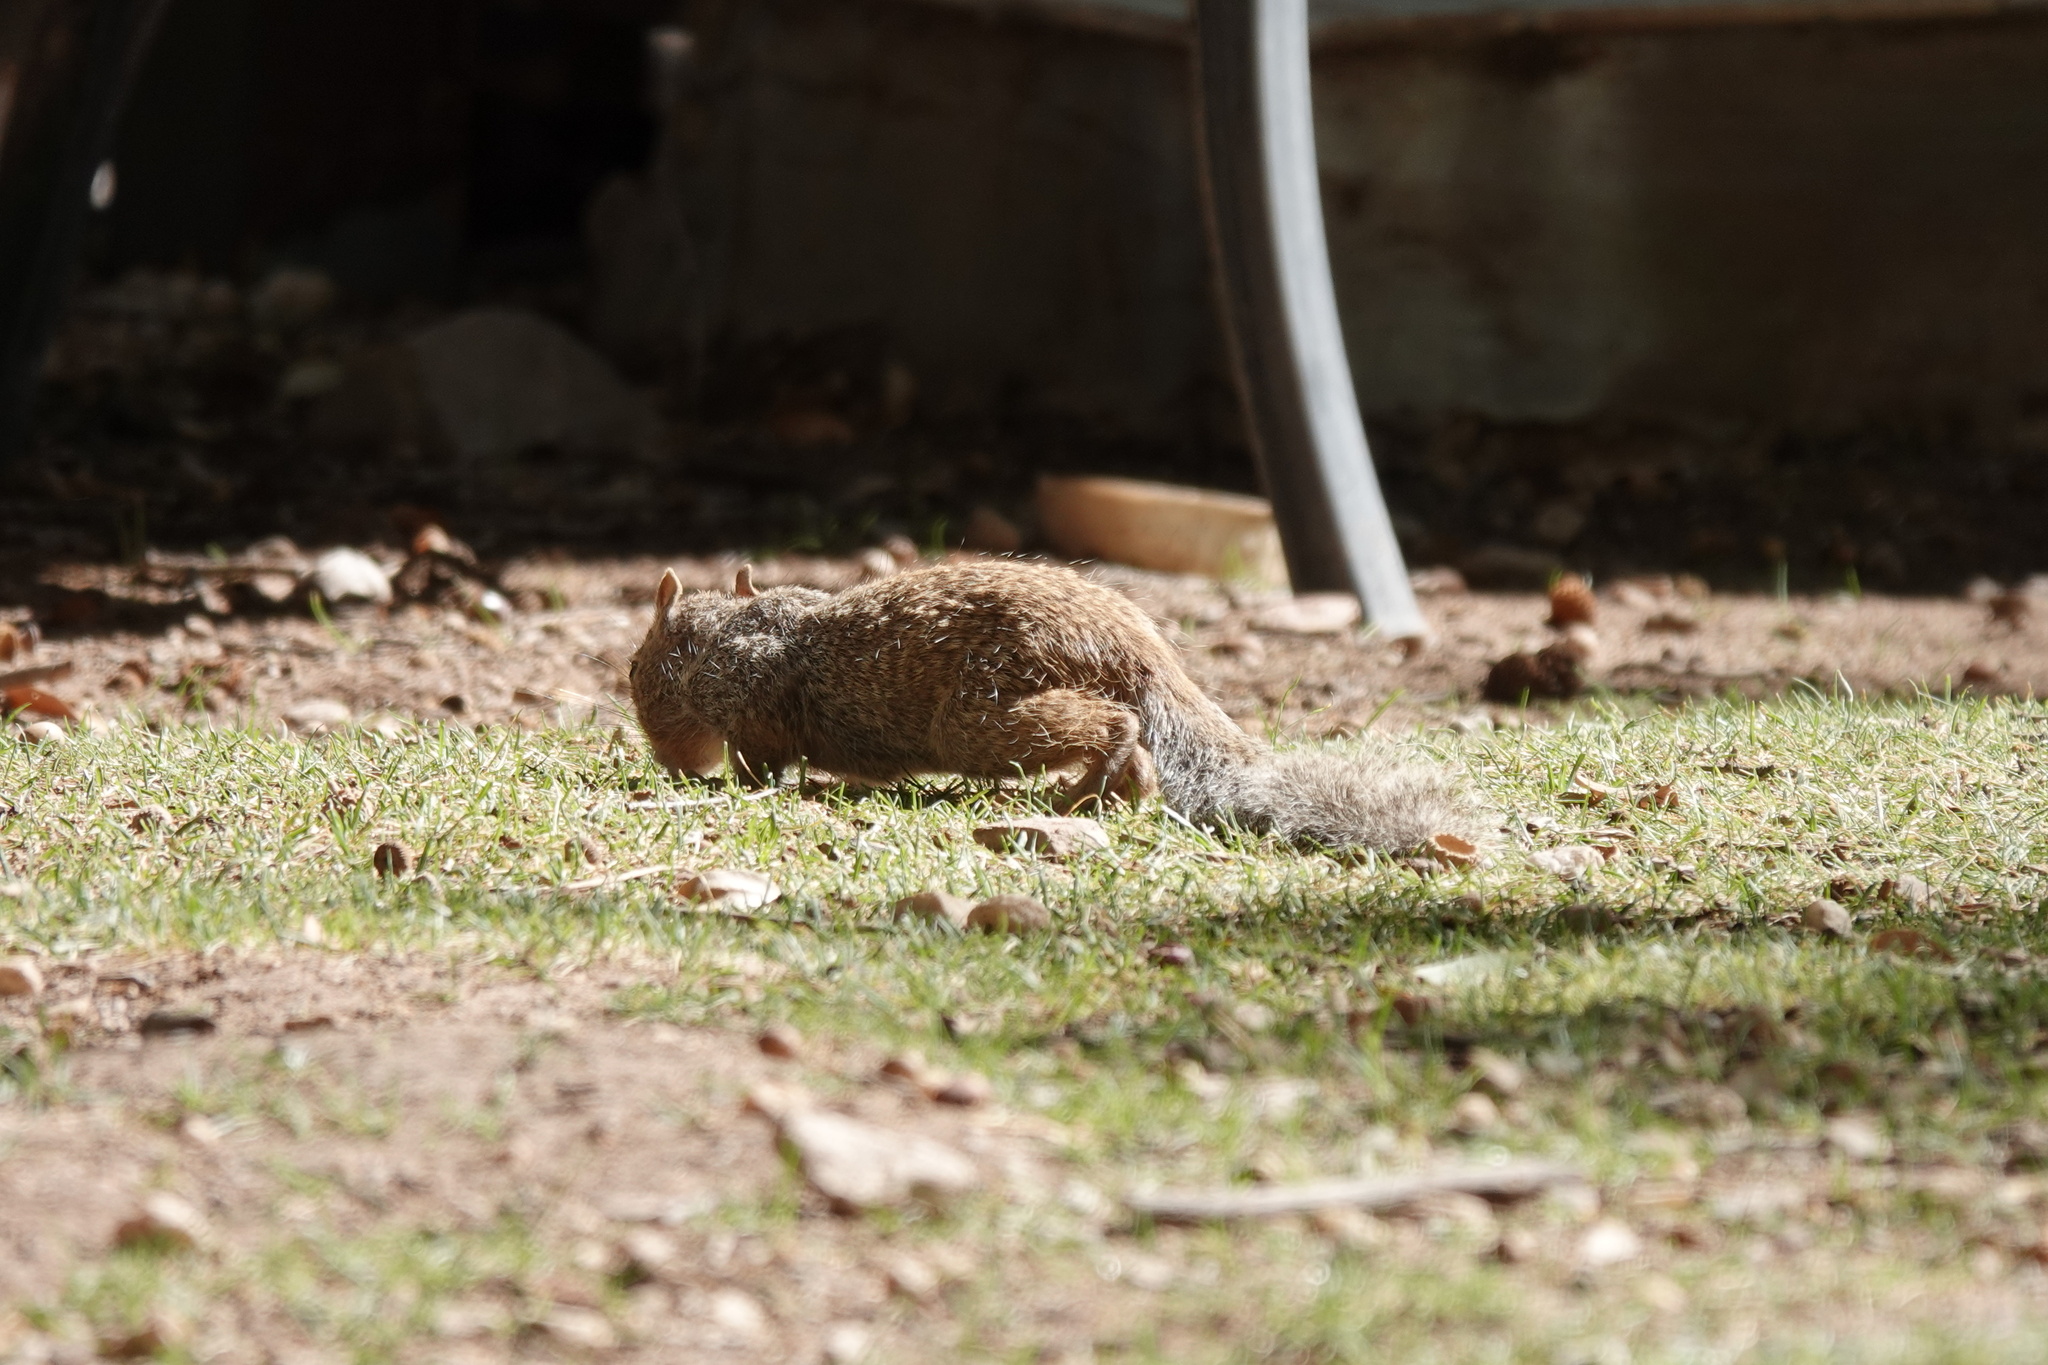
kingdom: Animalia
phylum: Chordata
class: Mammalia
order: Rodentia
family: Sciuridae
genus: Otospermophilus
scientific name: Otospermophilus variegatus
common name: Rock squirrel
